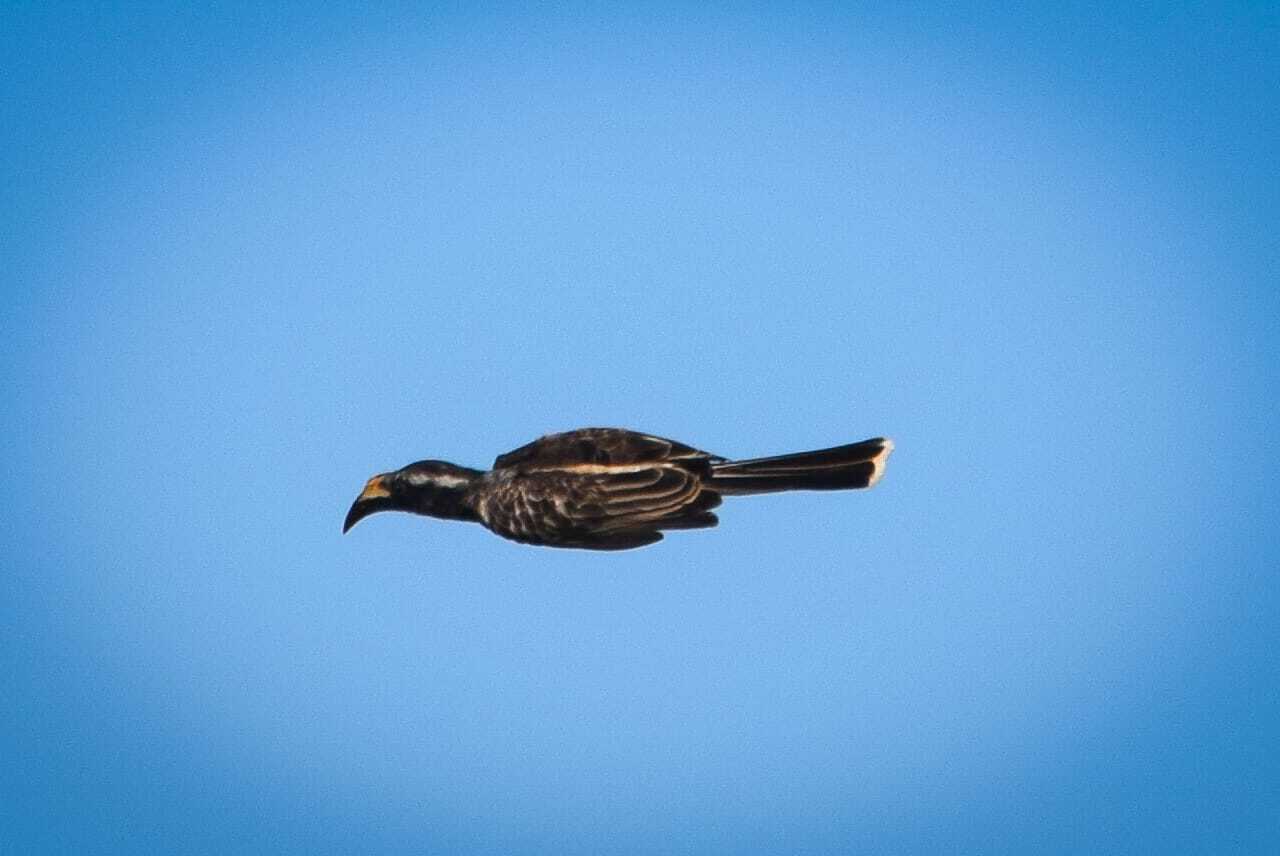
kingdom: Animalia
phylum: Chordata
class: Aves
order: Bucerotiformes
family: Bucerotidae
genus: Lophoceros
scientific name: Lophoceros nasutus
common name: African grey hornbill
